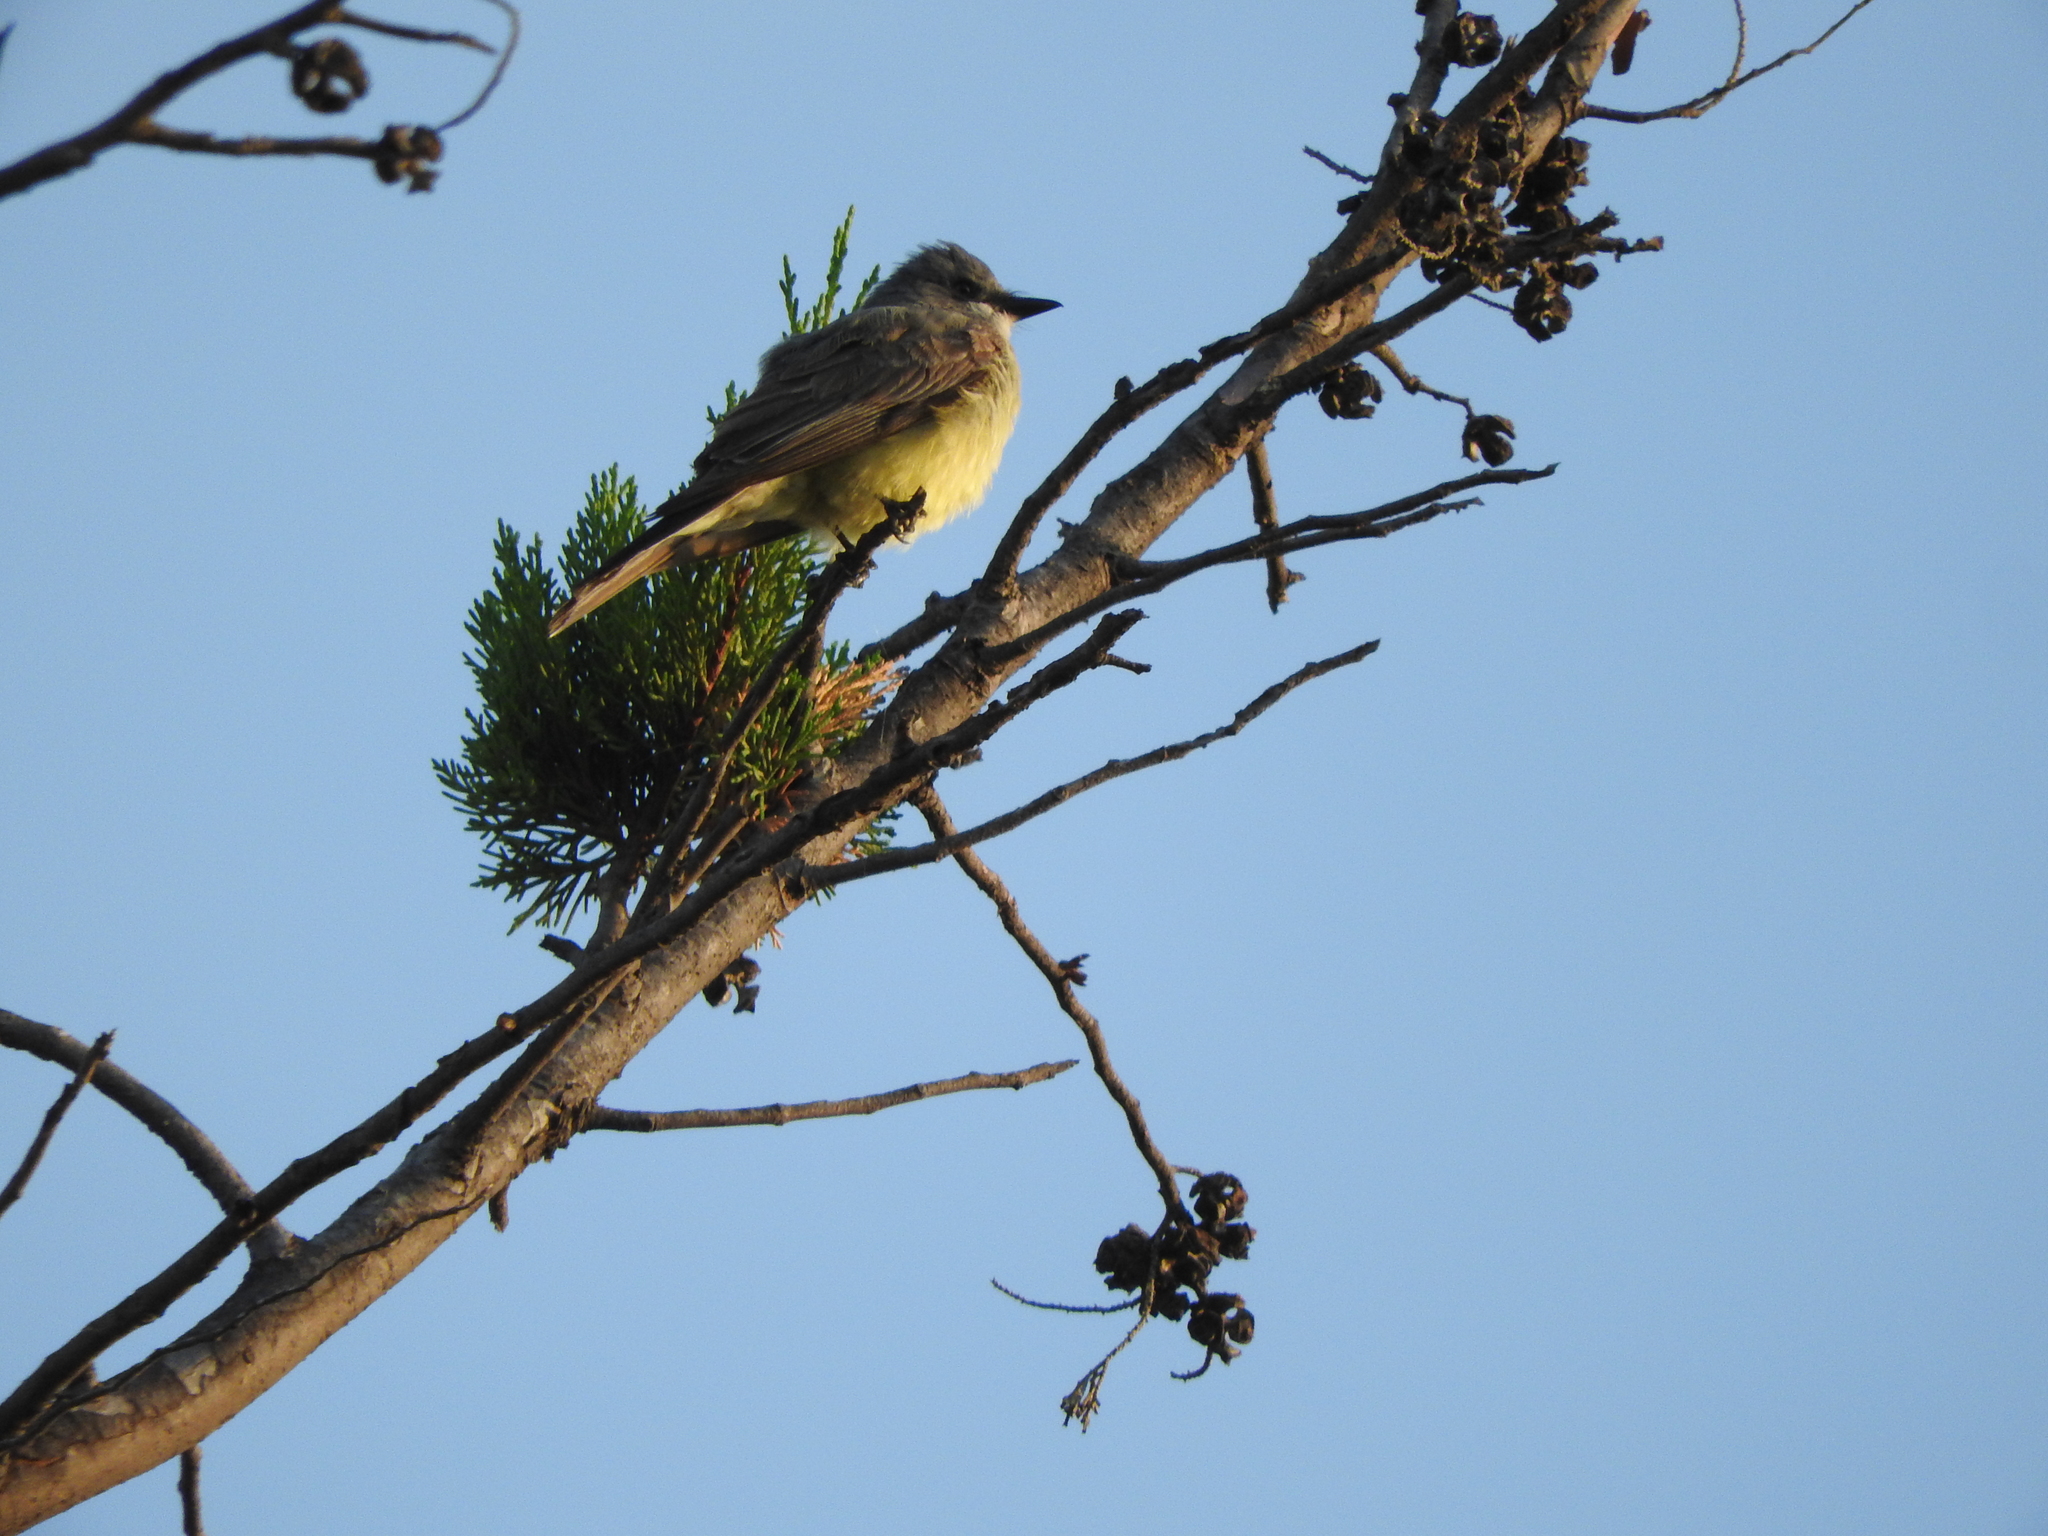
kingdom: Animalia
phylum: Chordata
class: Aves
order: Passeriformes
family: Tyrannidae
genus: Tyrannus
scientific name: Tyrannus vociferans
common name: Cassin's kingbird
